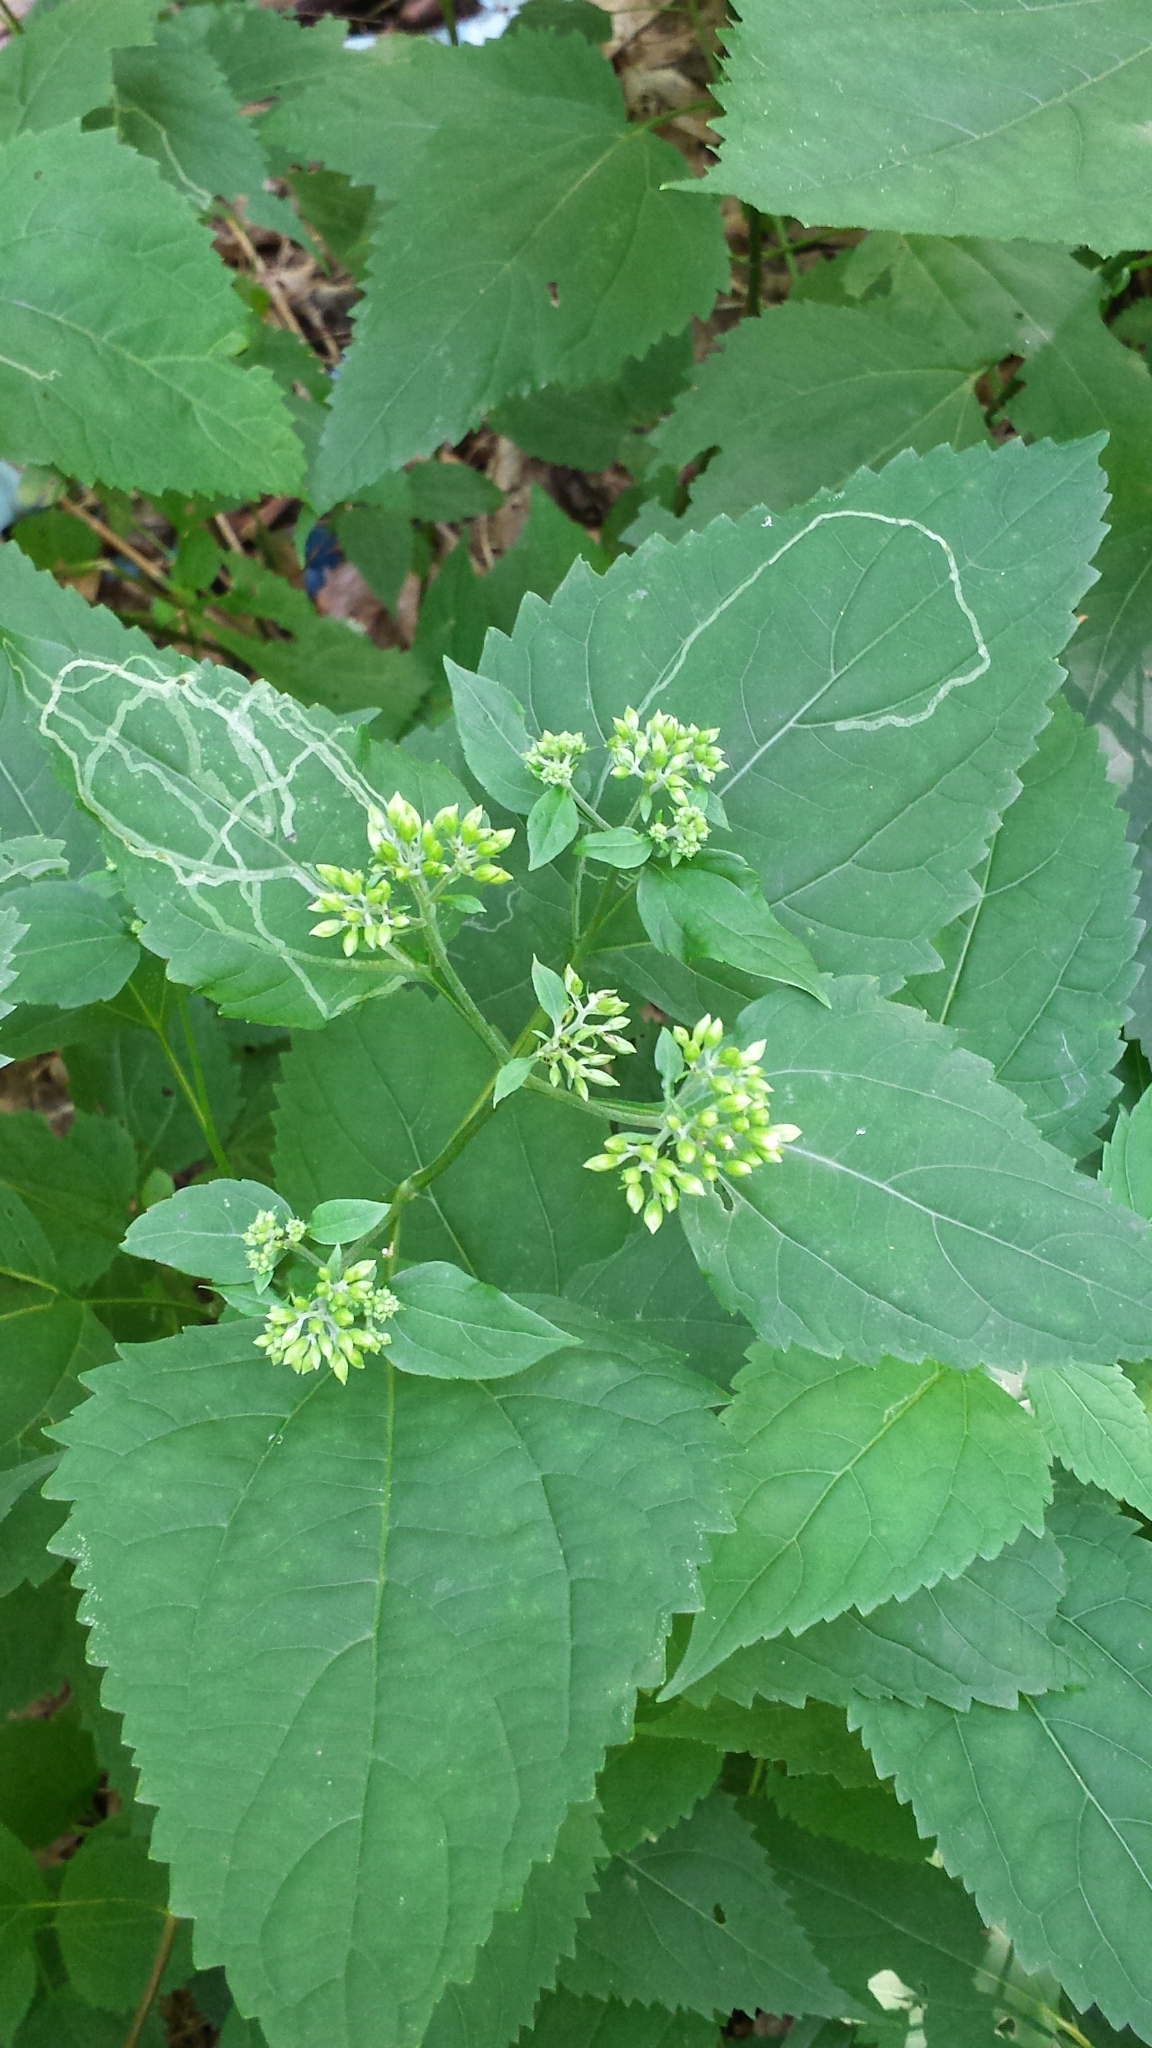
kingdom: Plantae
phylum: Tracheophyta
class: Magnoliopsida
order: Asterales
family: Asteraceae
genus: Ageratina
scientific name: Ageratina altissima
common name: White snakeroot
